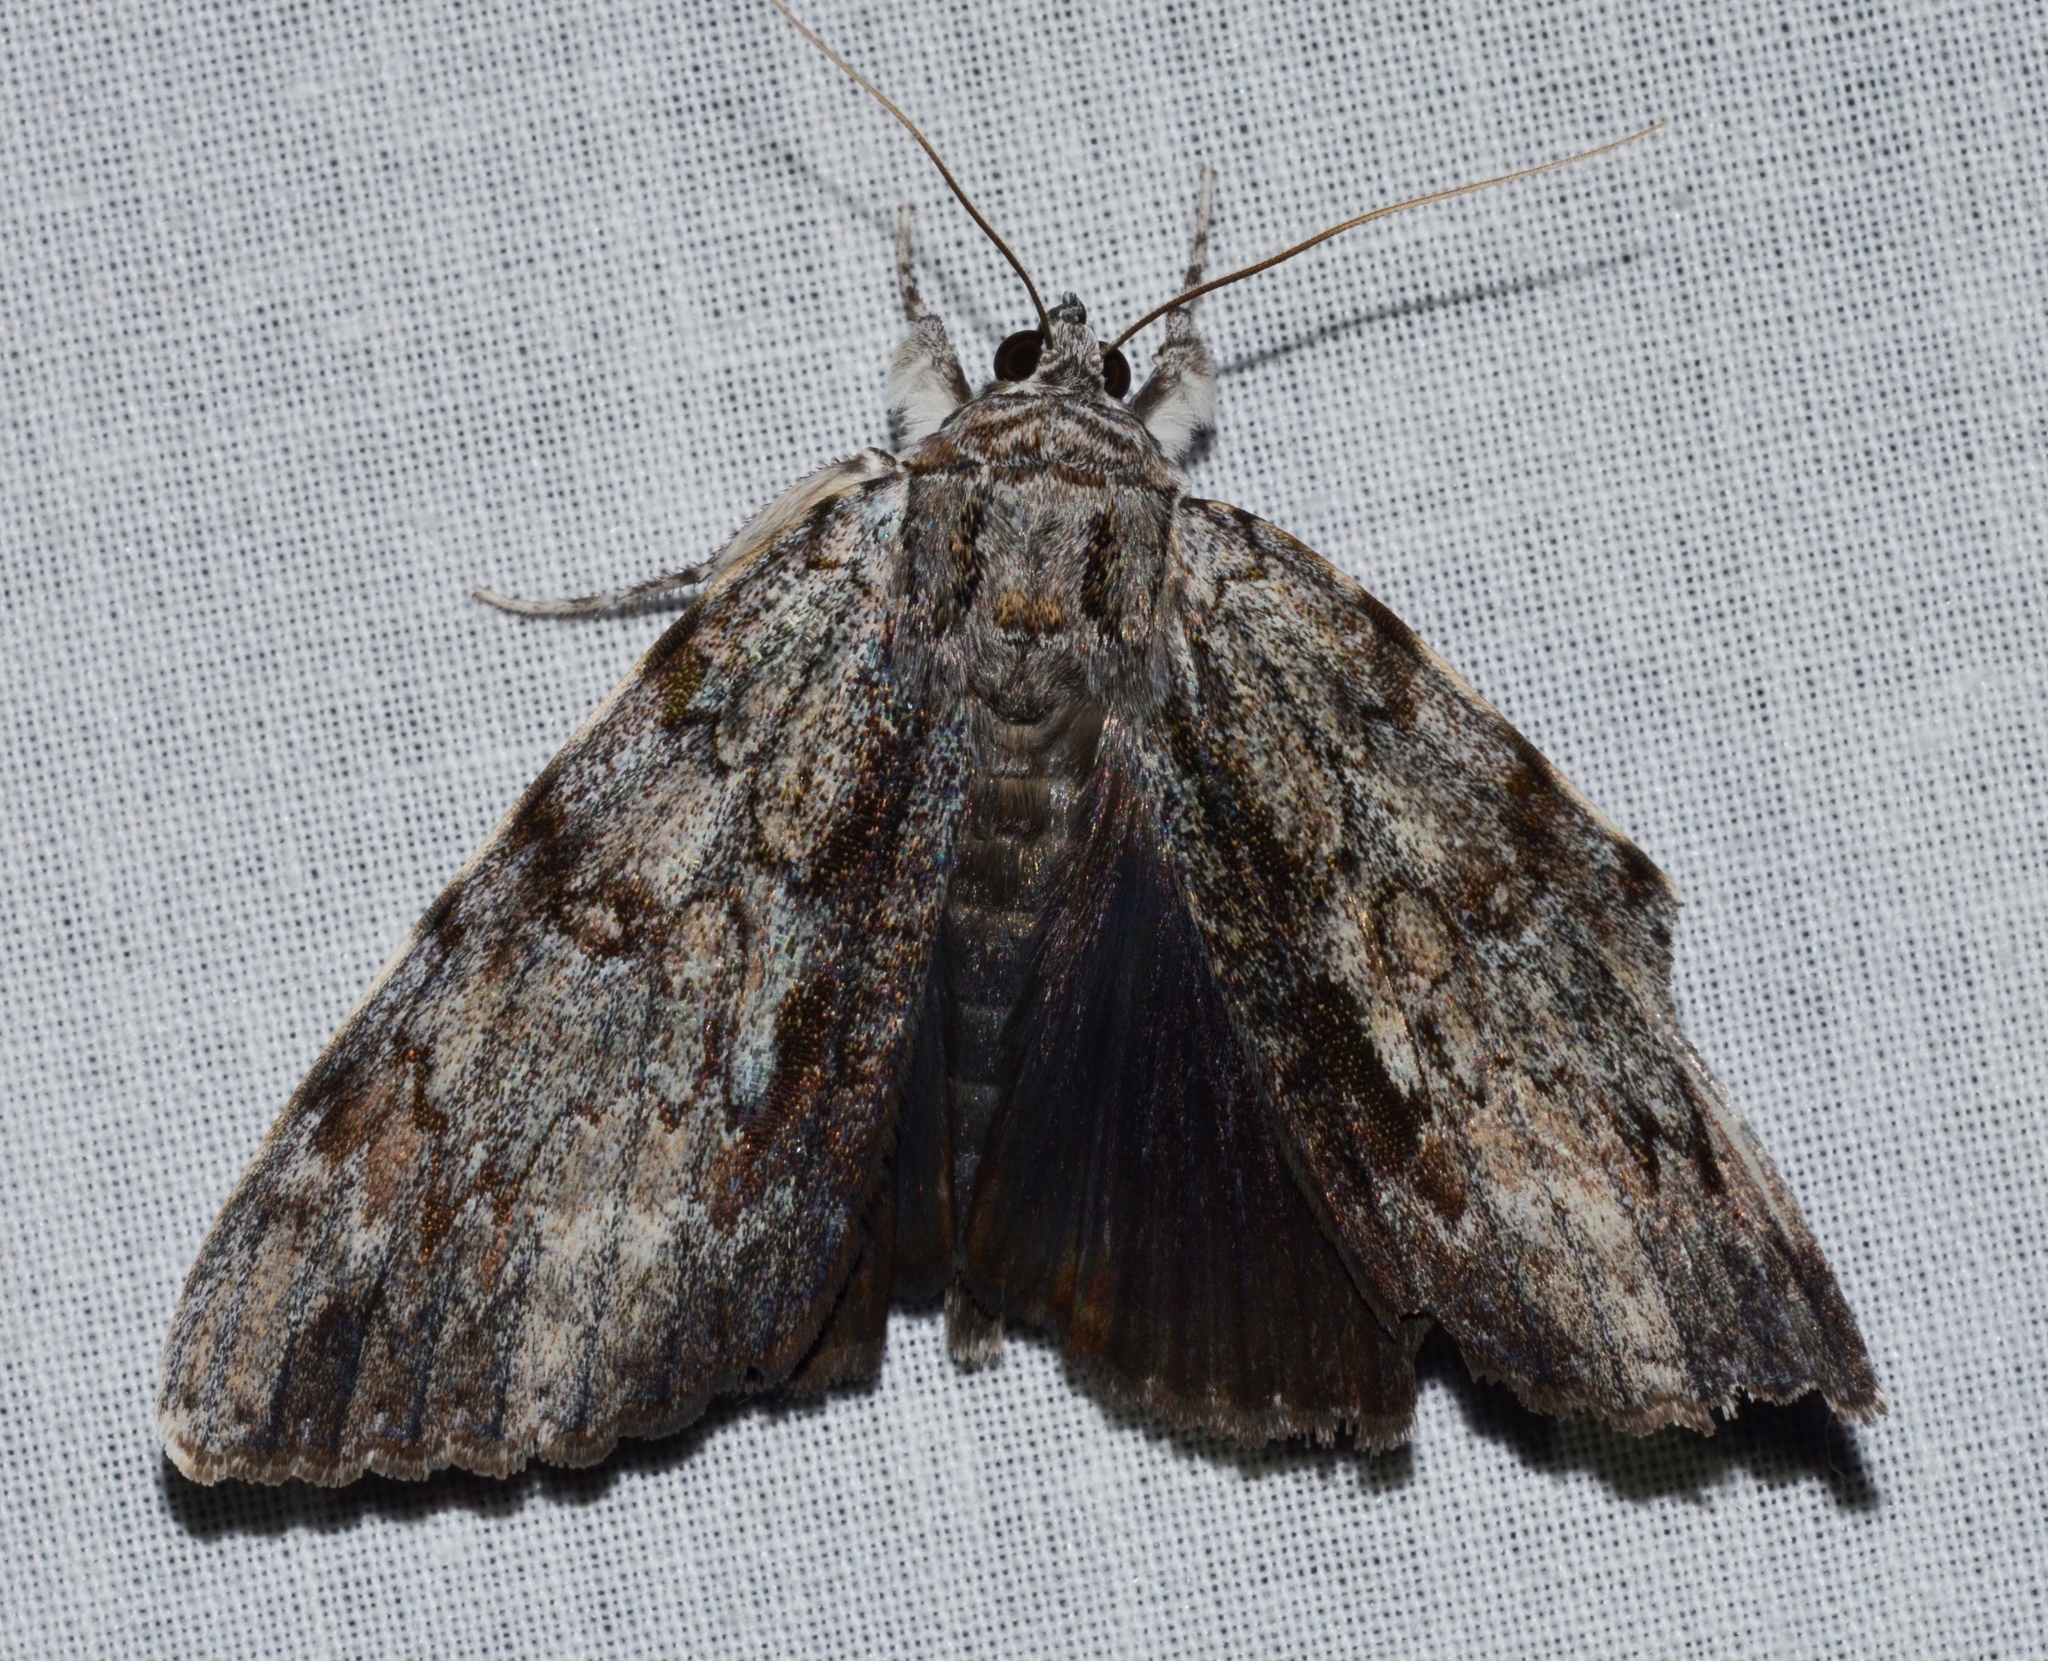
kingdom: Animalia
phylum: Arthropoda
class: Insecta
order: Lepidoptera
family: Erebidae
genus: Catocala
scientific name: Catocala insolabilis
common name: Inconsolable underwing
